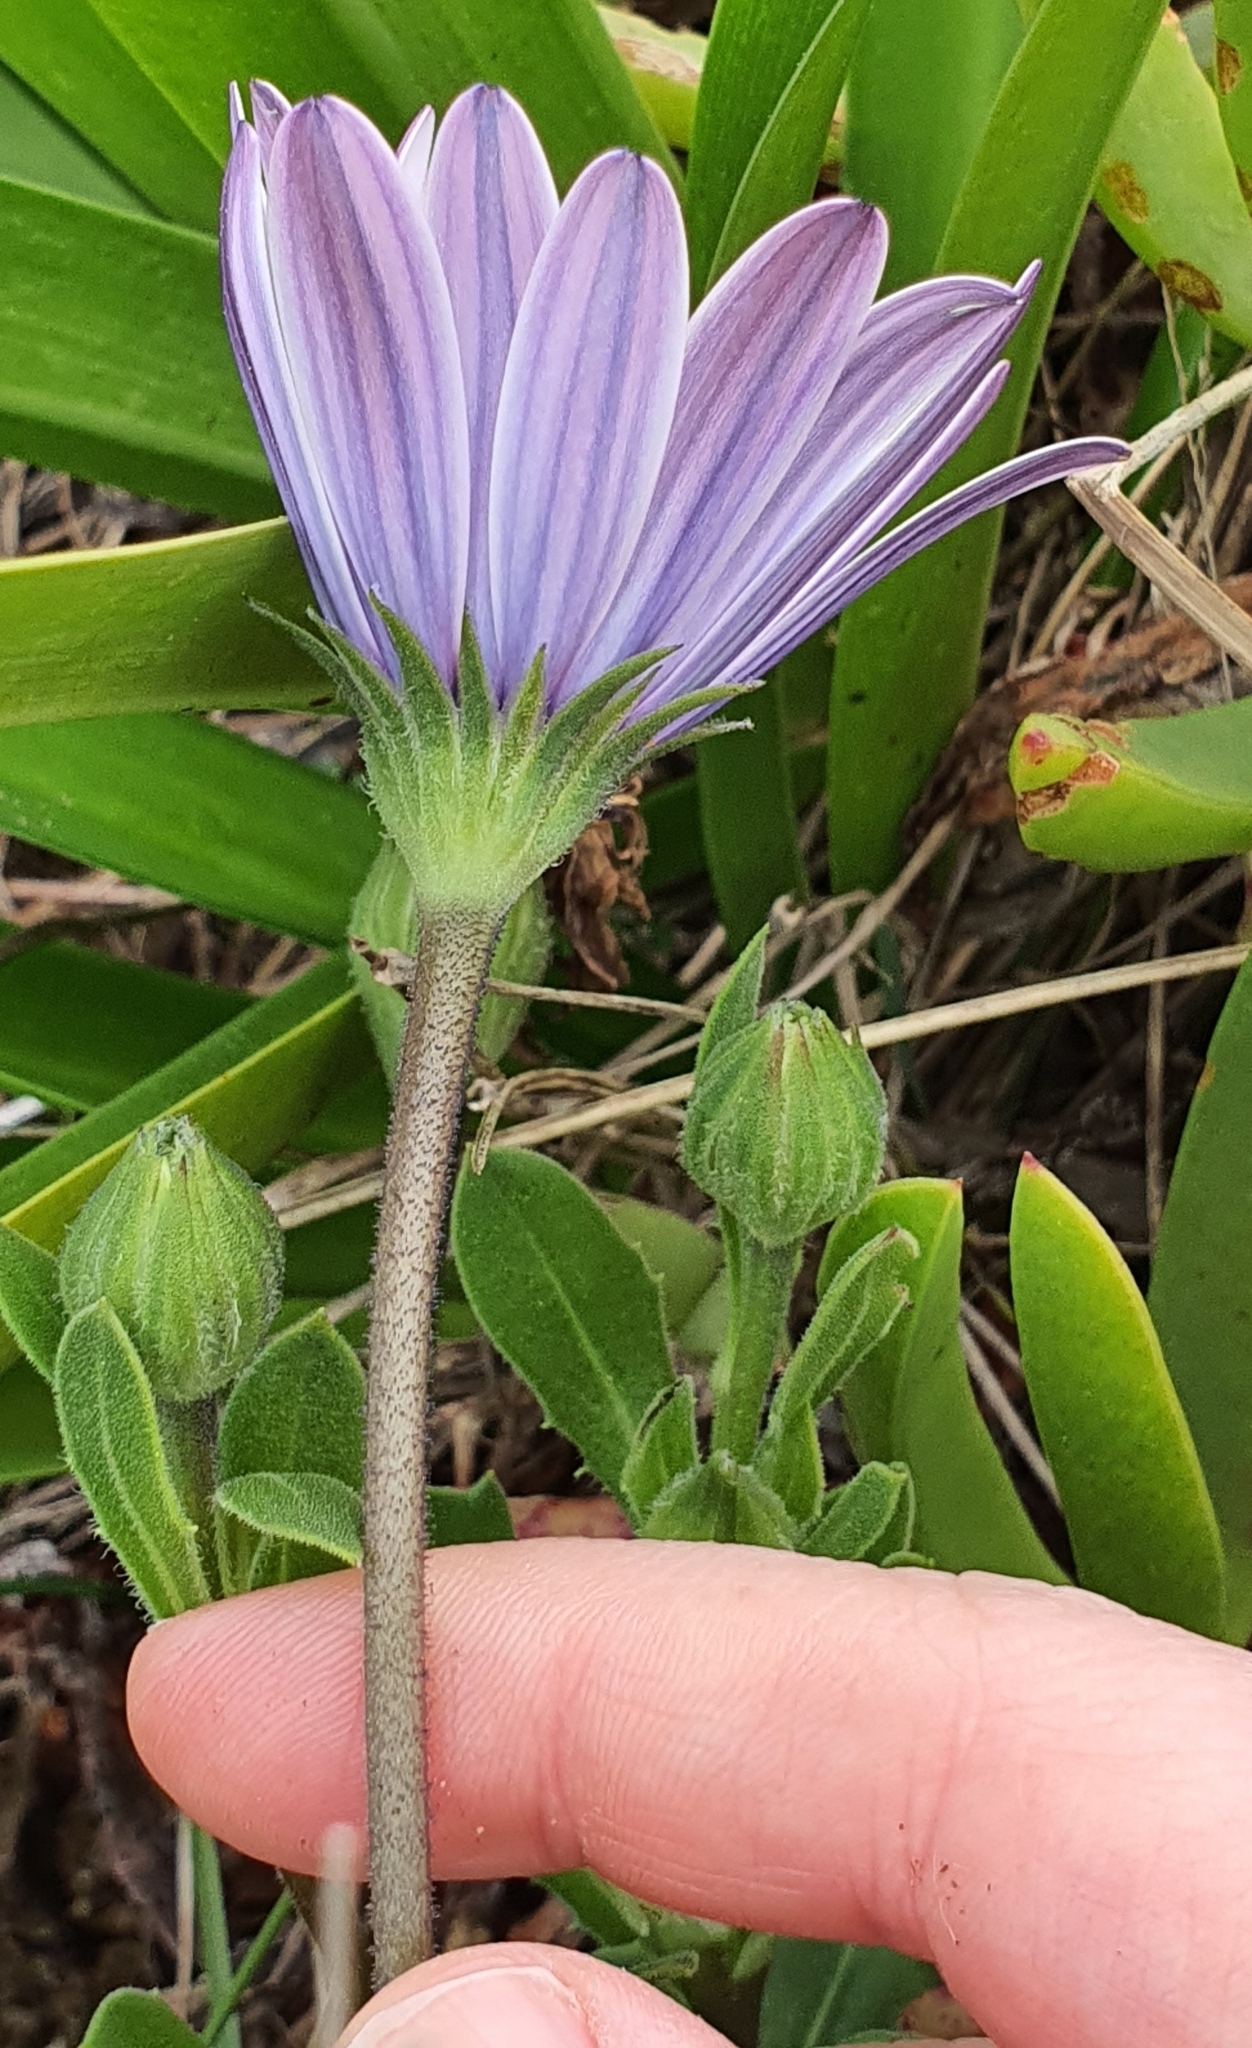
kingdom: Plantae
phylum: Tracheophyta
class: Magnoliopsida
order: Asterales
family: Asteraceae
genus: Dimorphotheca
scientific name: Dimorphotheca ecklonis
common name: Vanstaden's river daisy
